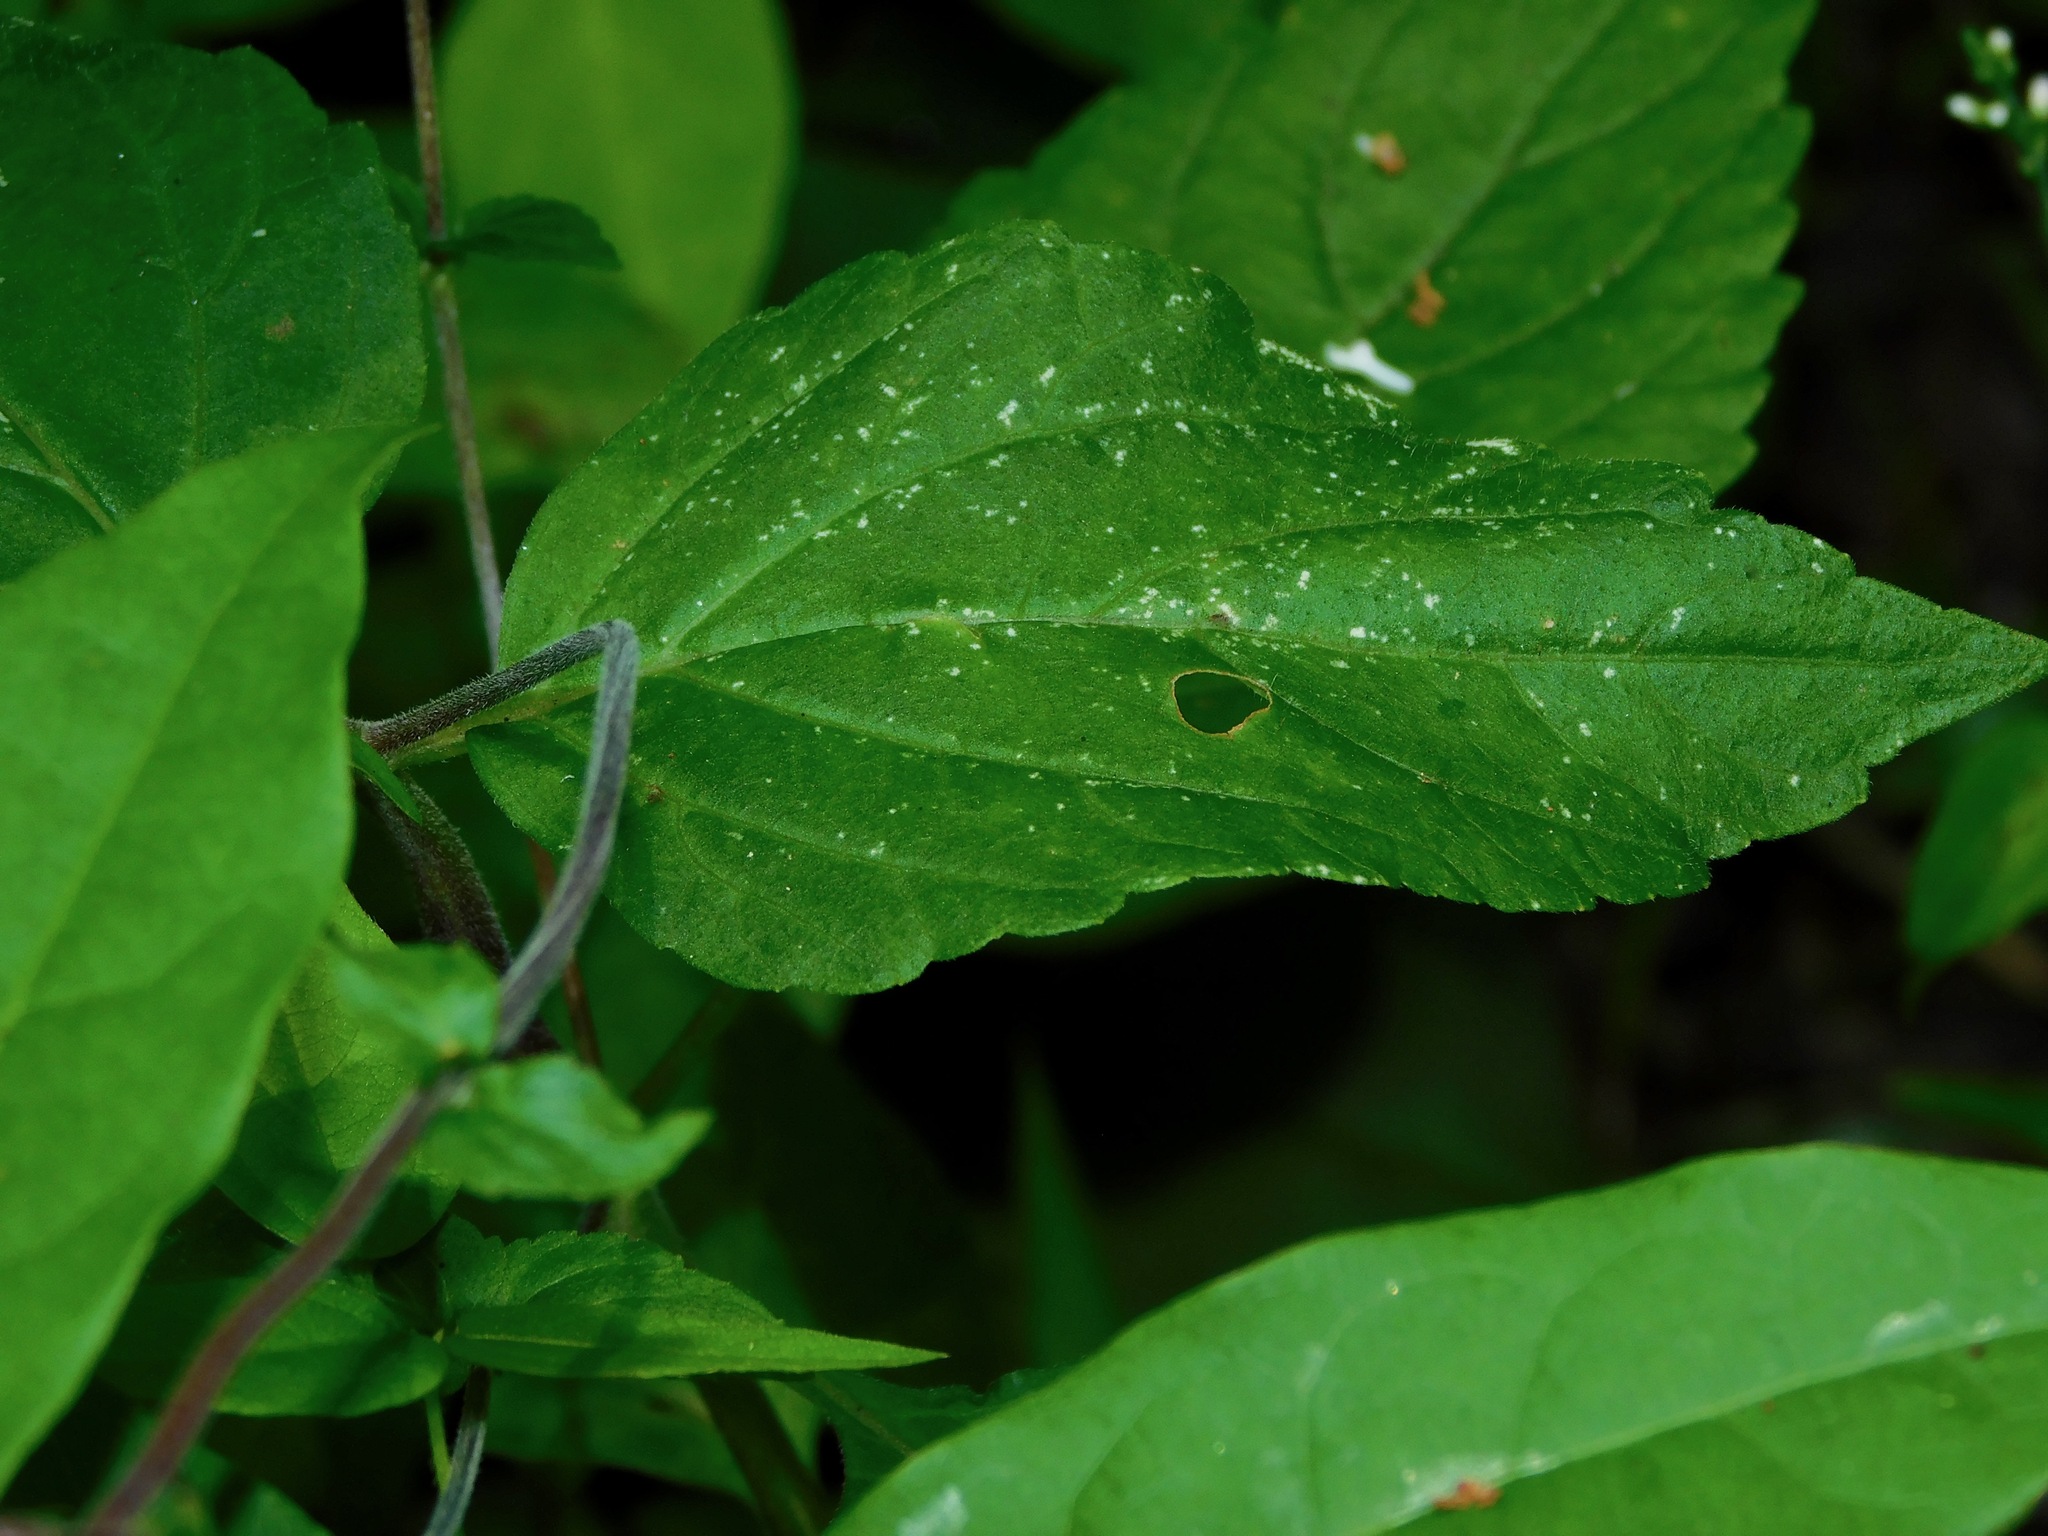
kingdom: Plantae
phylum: Tracheophyta
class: Magnoliopsida
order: Lamiales
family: Phrymaceae
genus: Phryma
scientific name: Phryma leptostachya
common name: American lopseed
